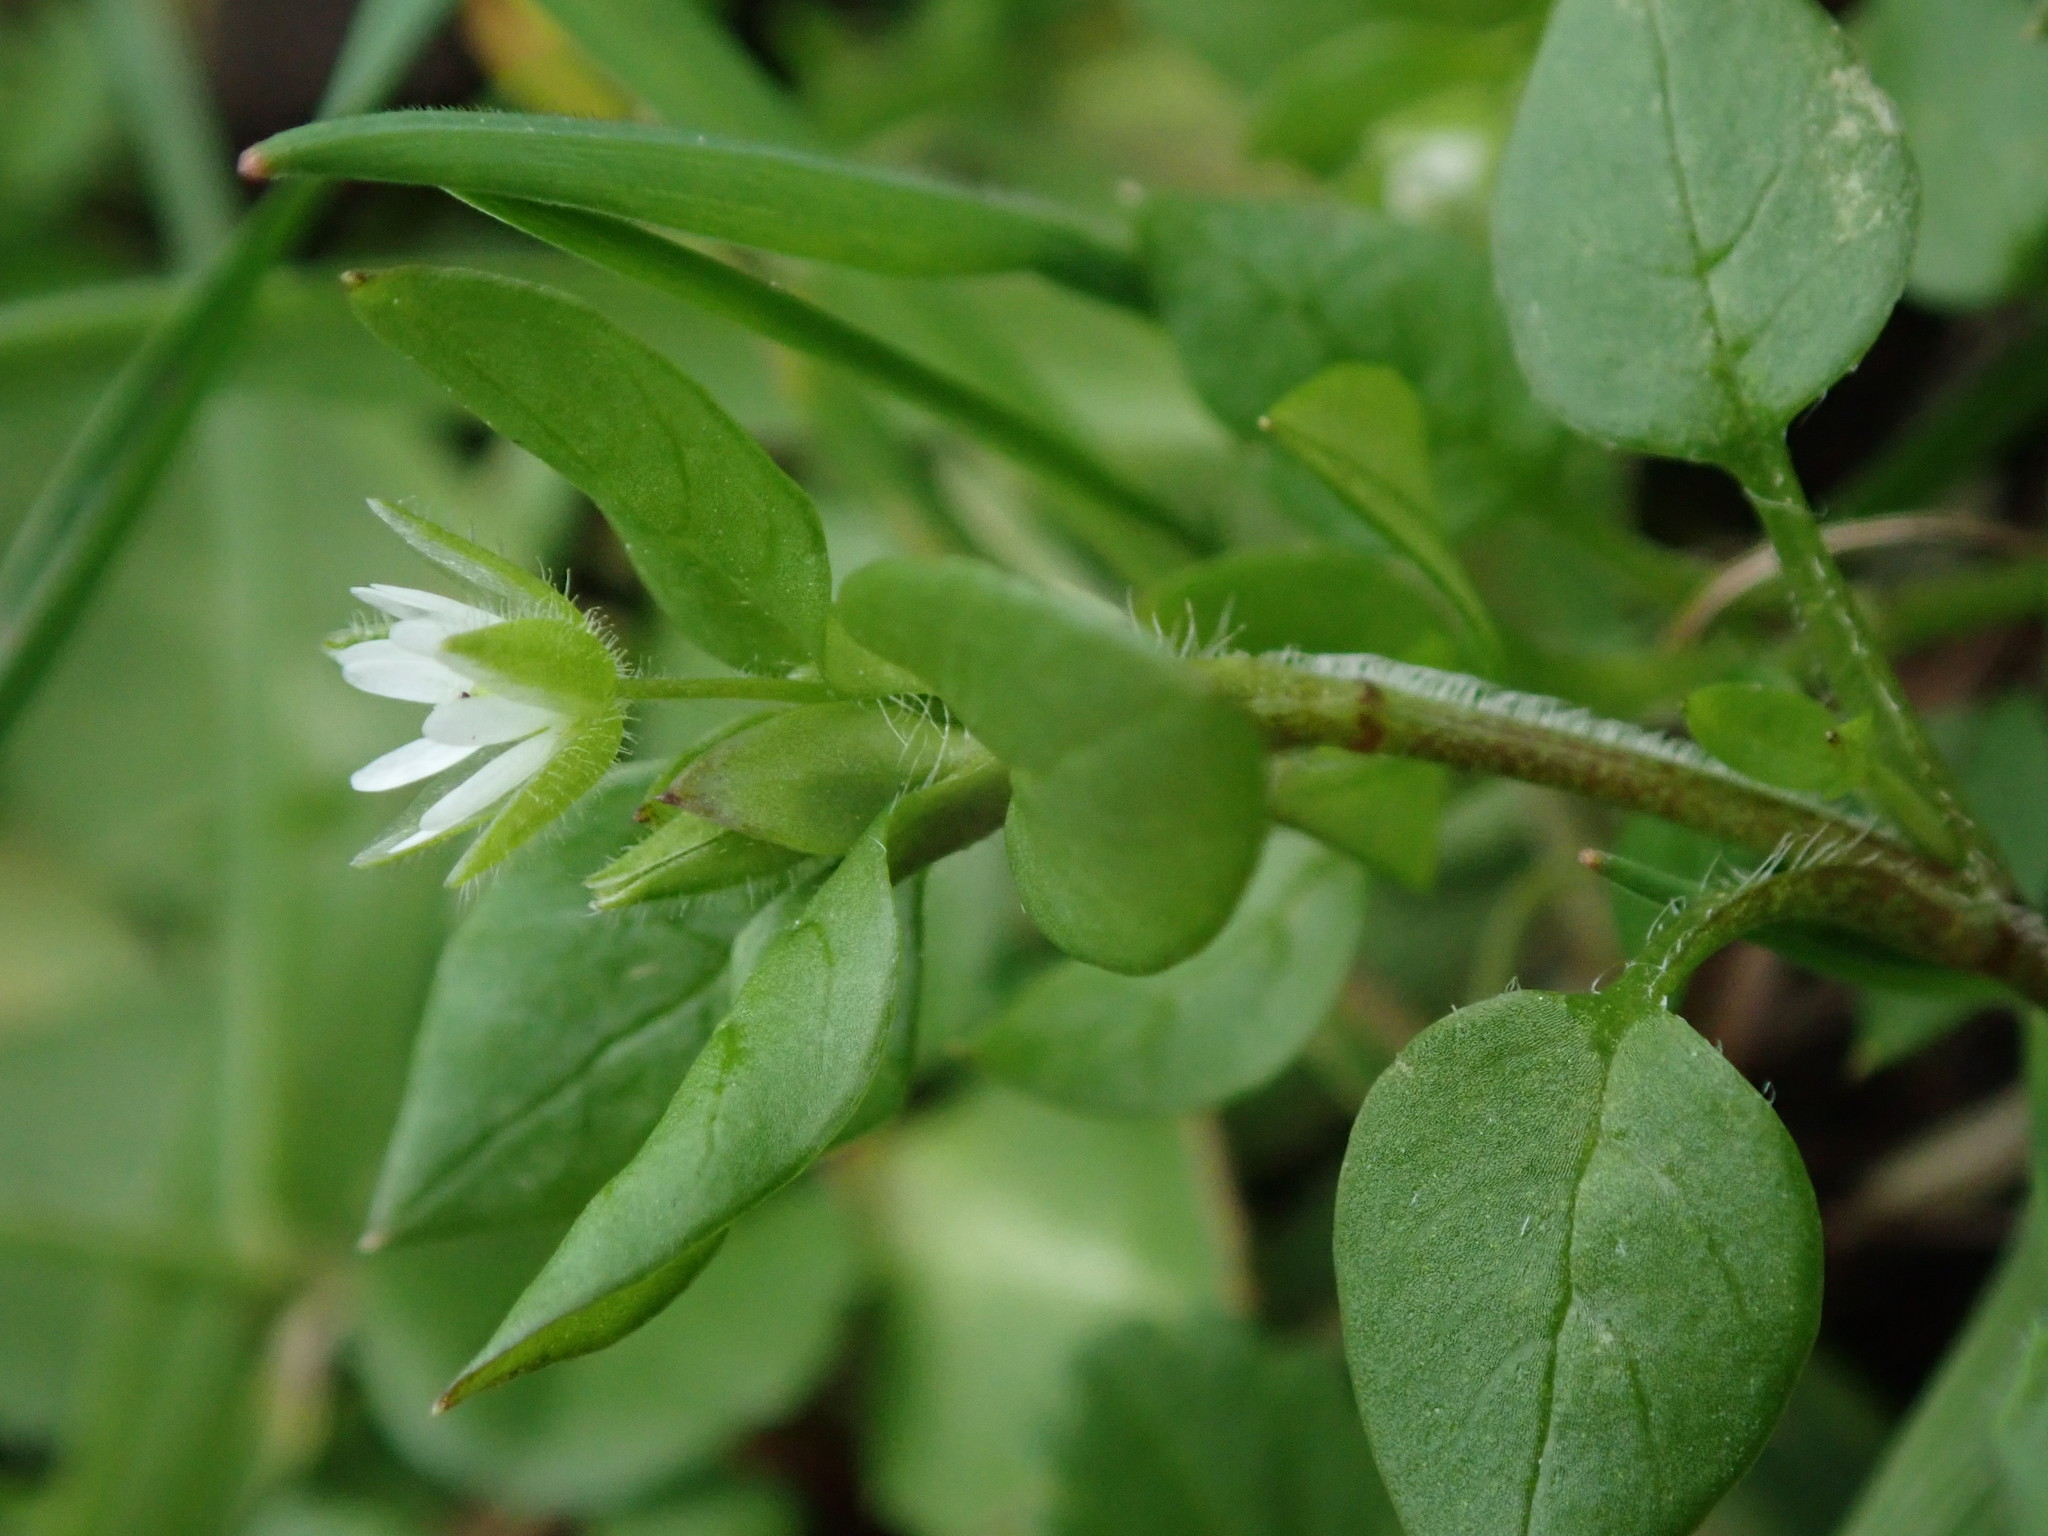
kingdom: Plantae
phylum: Tracheophyta
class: Magnoliopsida
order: Caryophyllales
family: Caryophyllaceae
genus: Stellaria
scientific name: Stellaria media
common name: Common chickweed
